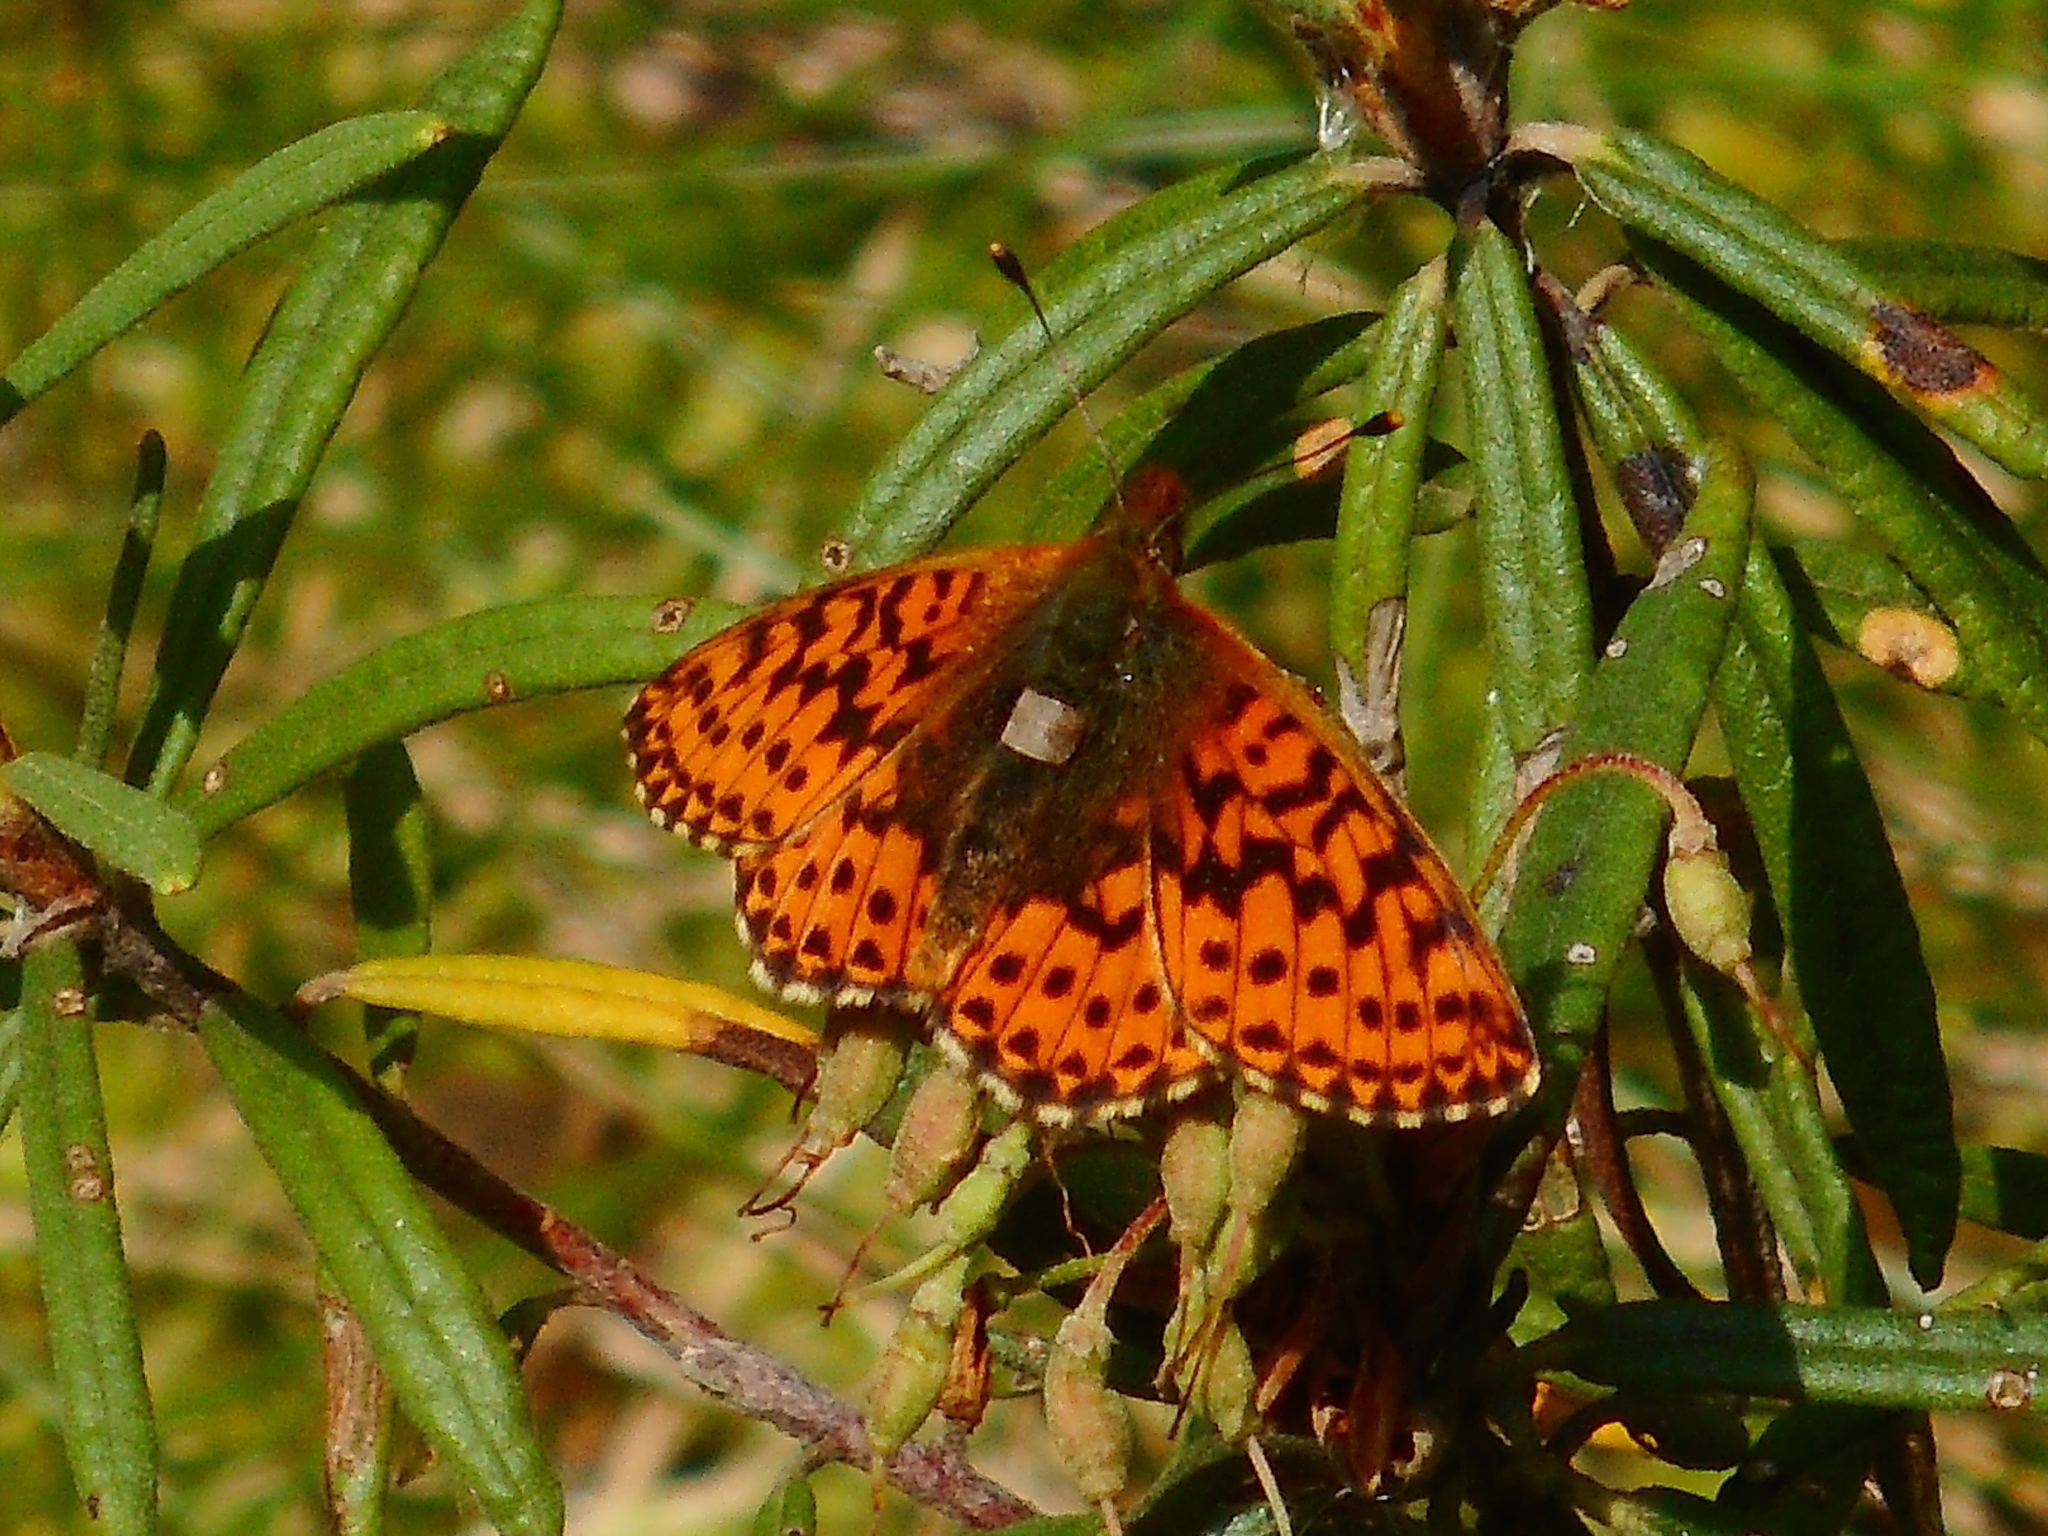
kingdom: Animalia
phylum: Arthropoda
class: Insecta
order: Lepidoptera
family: Nymphalidae
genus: Boloria
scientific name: Boloria aquilonaris
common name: Cranberry fritillary
